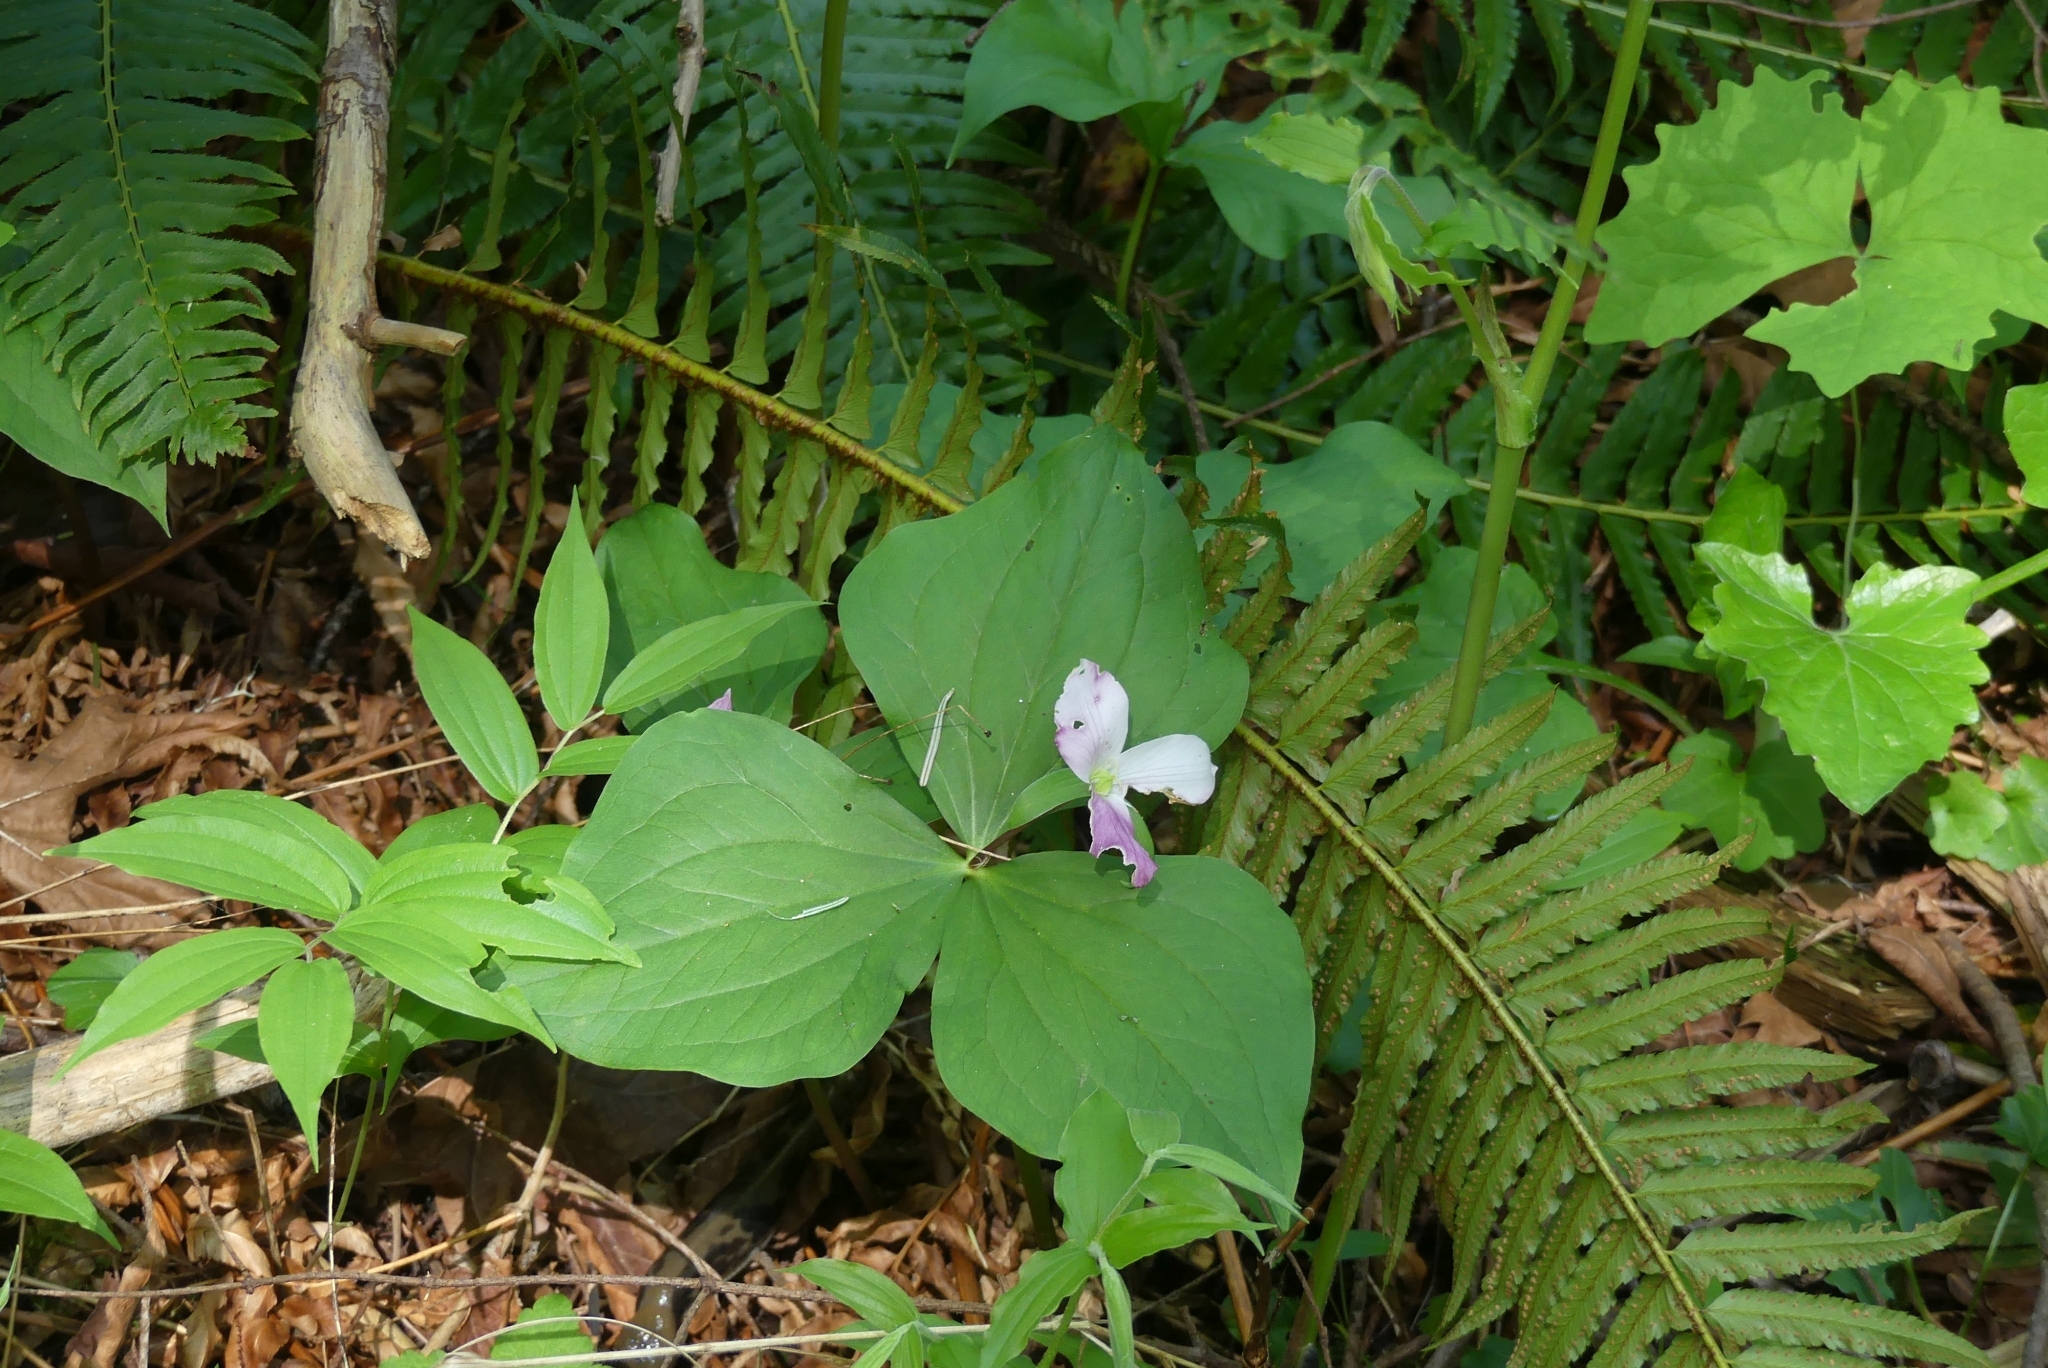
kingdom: Plantae
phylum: Tracheophyta
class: Liliopsida
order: Liliales
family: Melanthiaceae
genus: Trillium
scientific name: Trillium ovatum
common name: Pacific trillium
